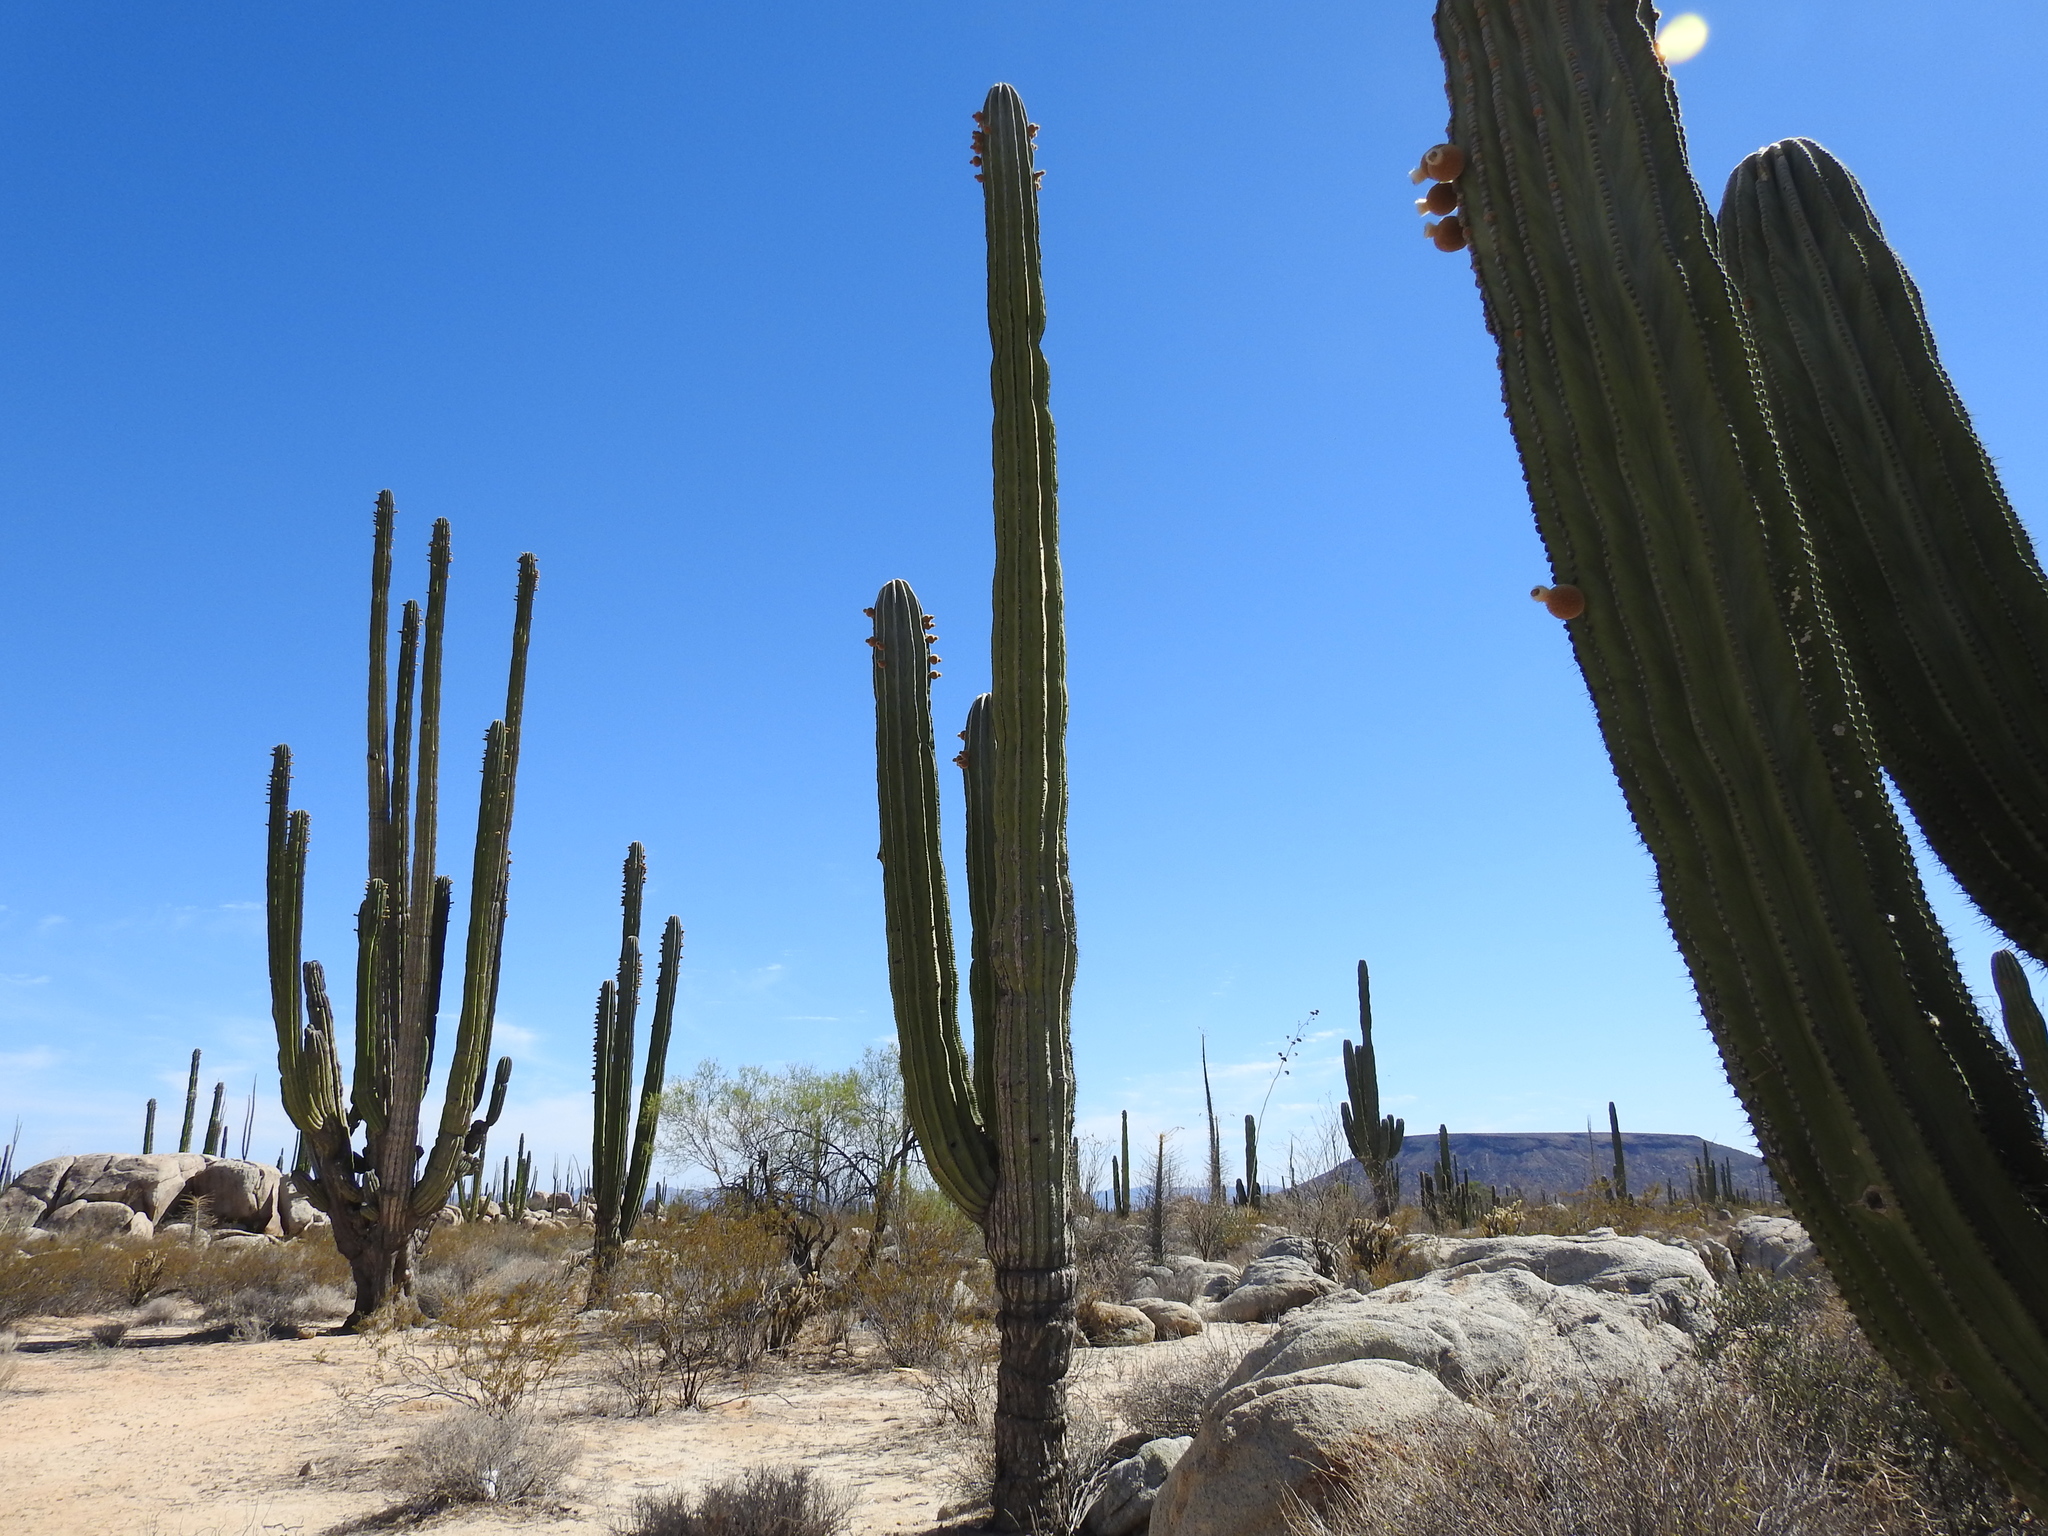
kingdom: Plantae
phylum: Tracheophyta
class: Magnoliopsida
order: Caryophyllales
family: Cactaceae
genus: Pachycereus
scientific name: Pachycereus pringlei
